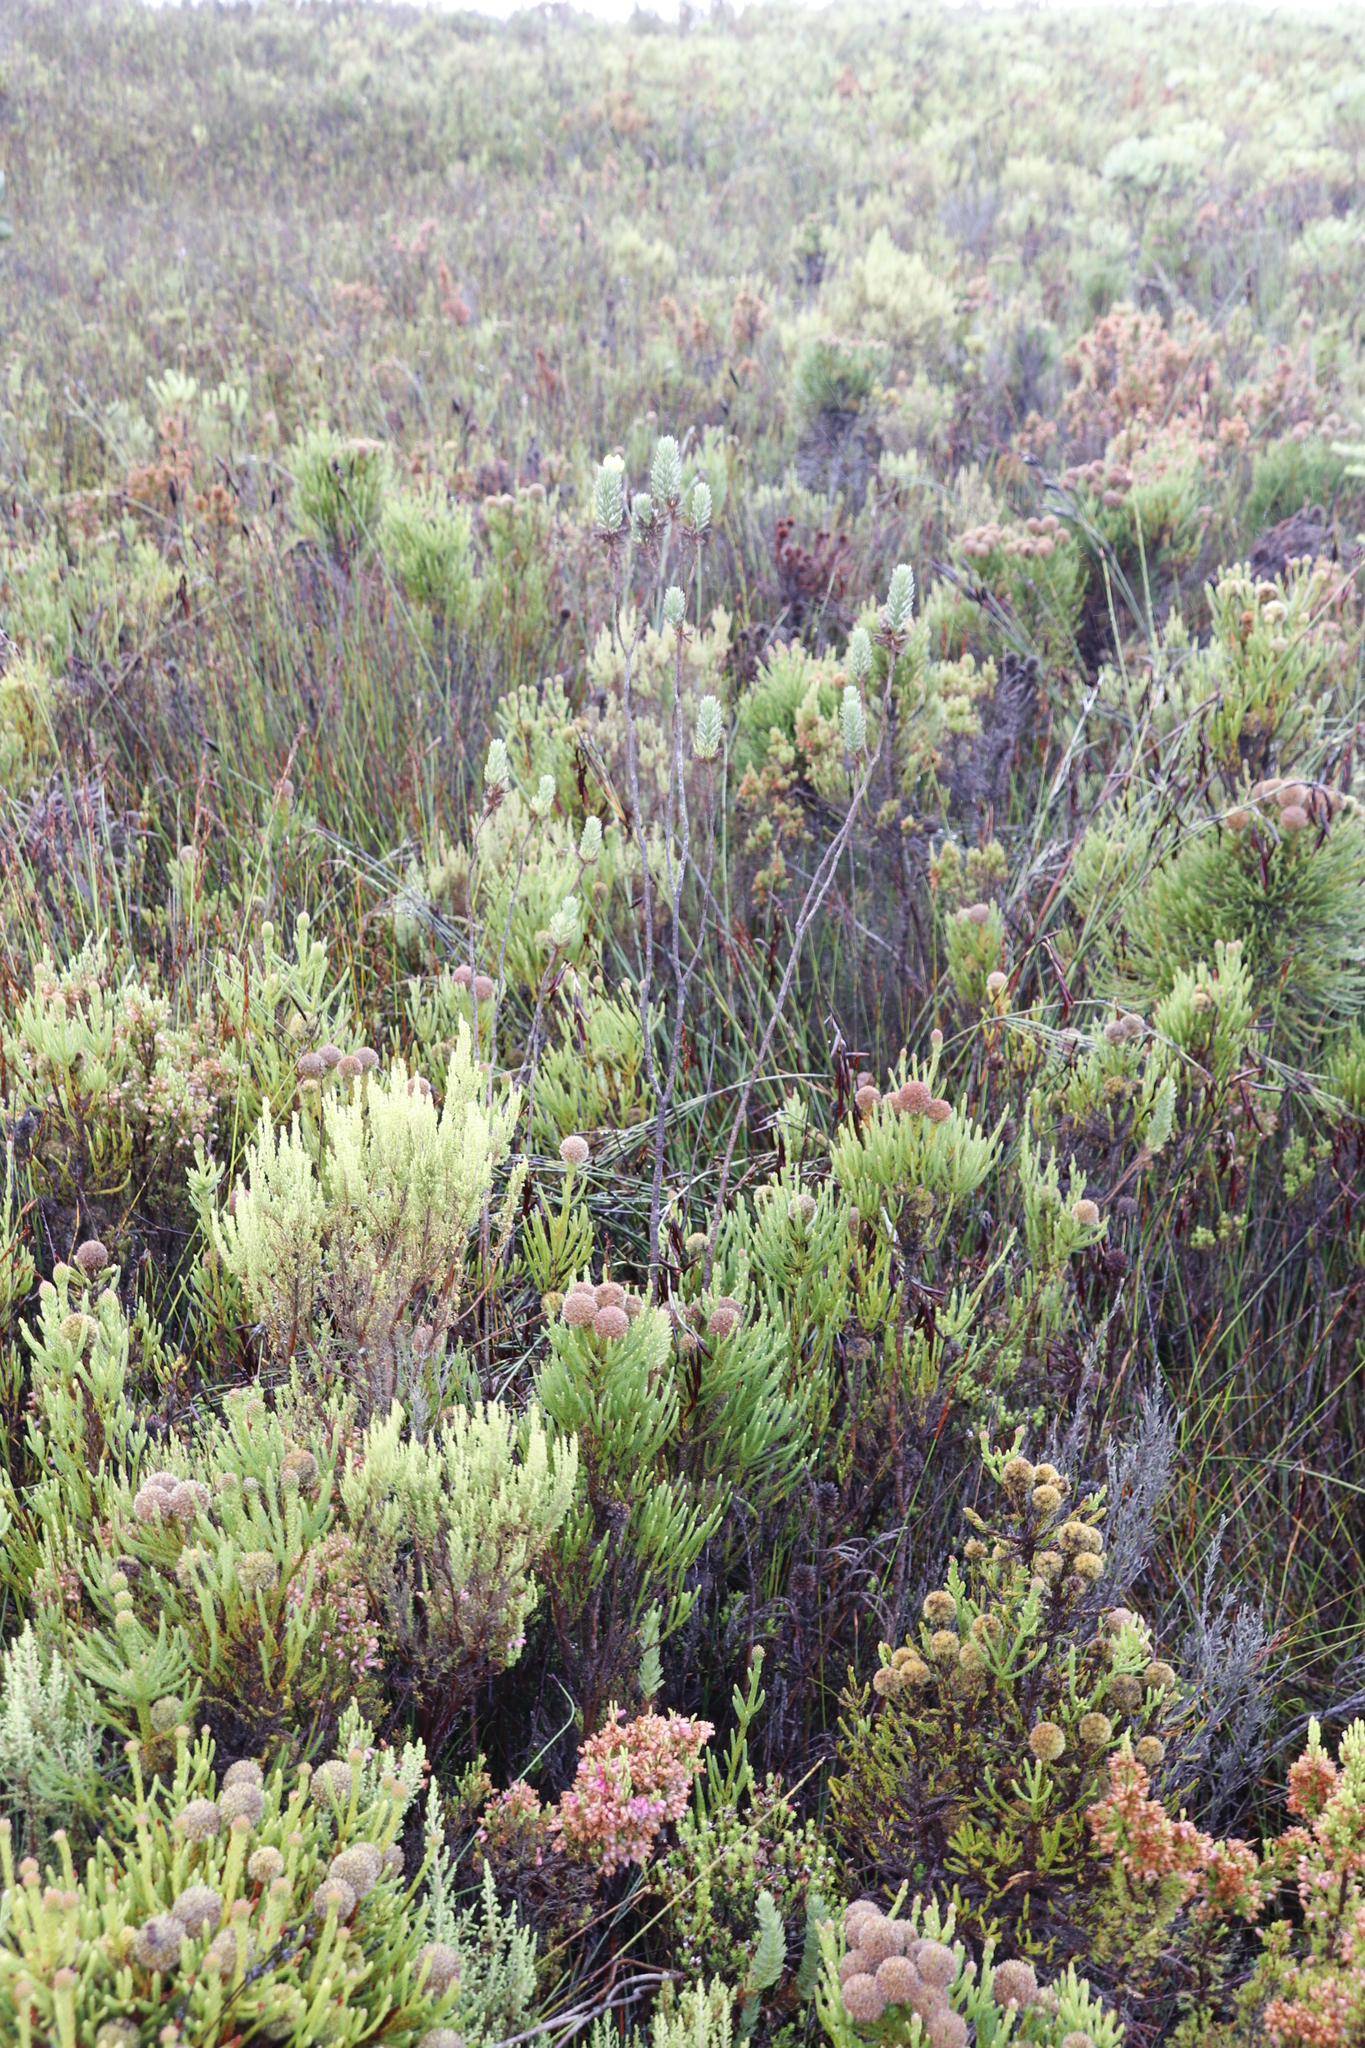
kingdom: Plantae
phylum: Tracheophyta
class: Magnoliopsida
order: Asterales
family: Asteraceae
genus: Ursinia
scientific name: Ursinia quinquepartita
